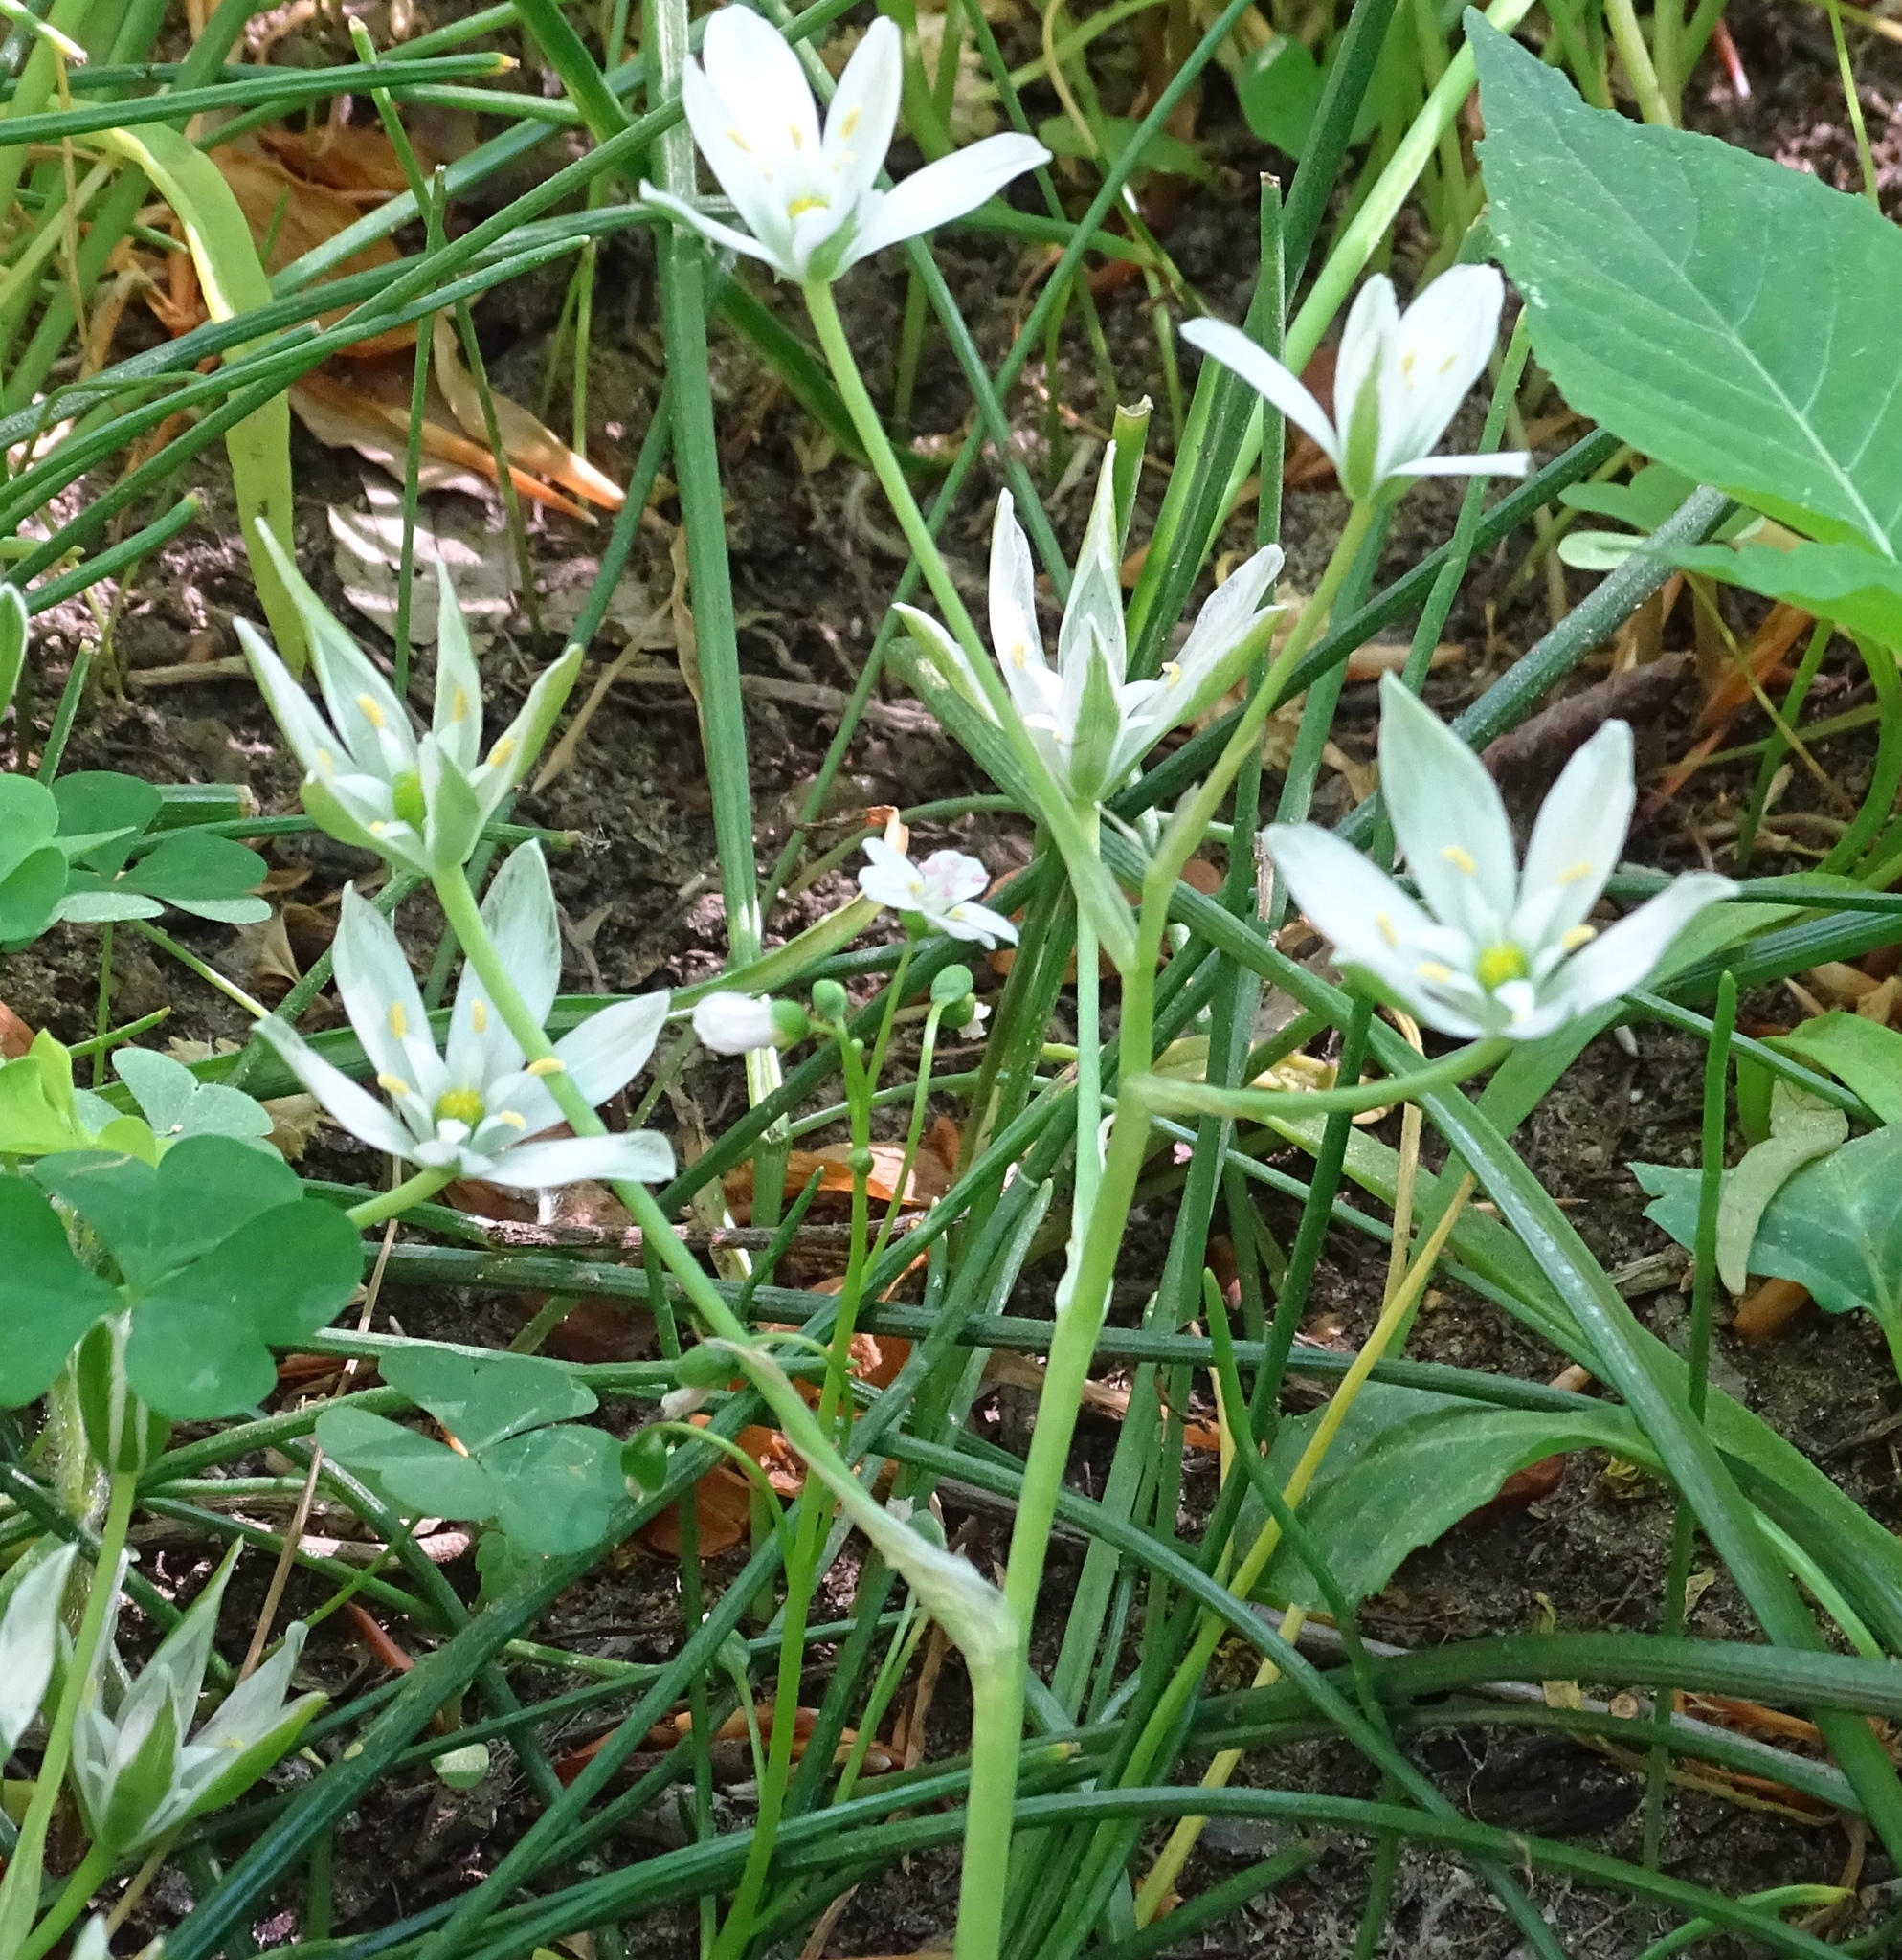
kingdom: Plantae
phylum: Tracheophyta
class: Liliopsida
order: Asparagales
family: Asparagaceae
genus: Ornithogalum
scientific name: Ornithogalum umbellatum
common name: Garden star-of-bethlehem
